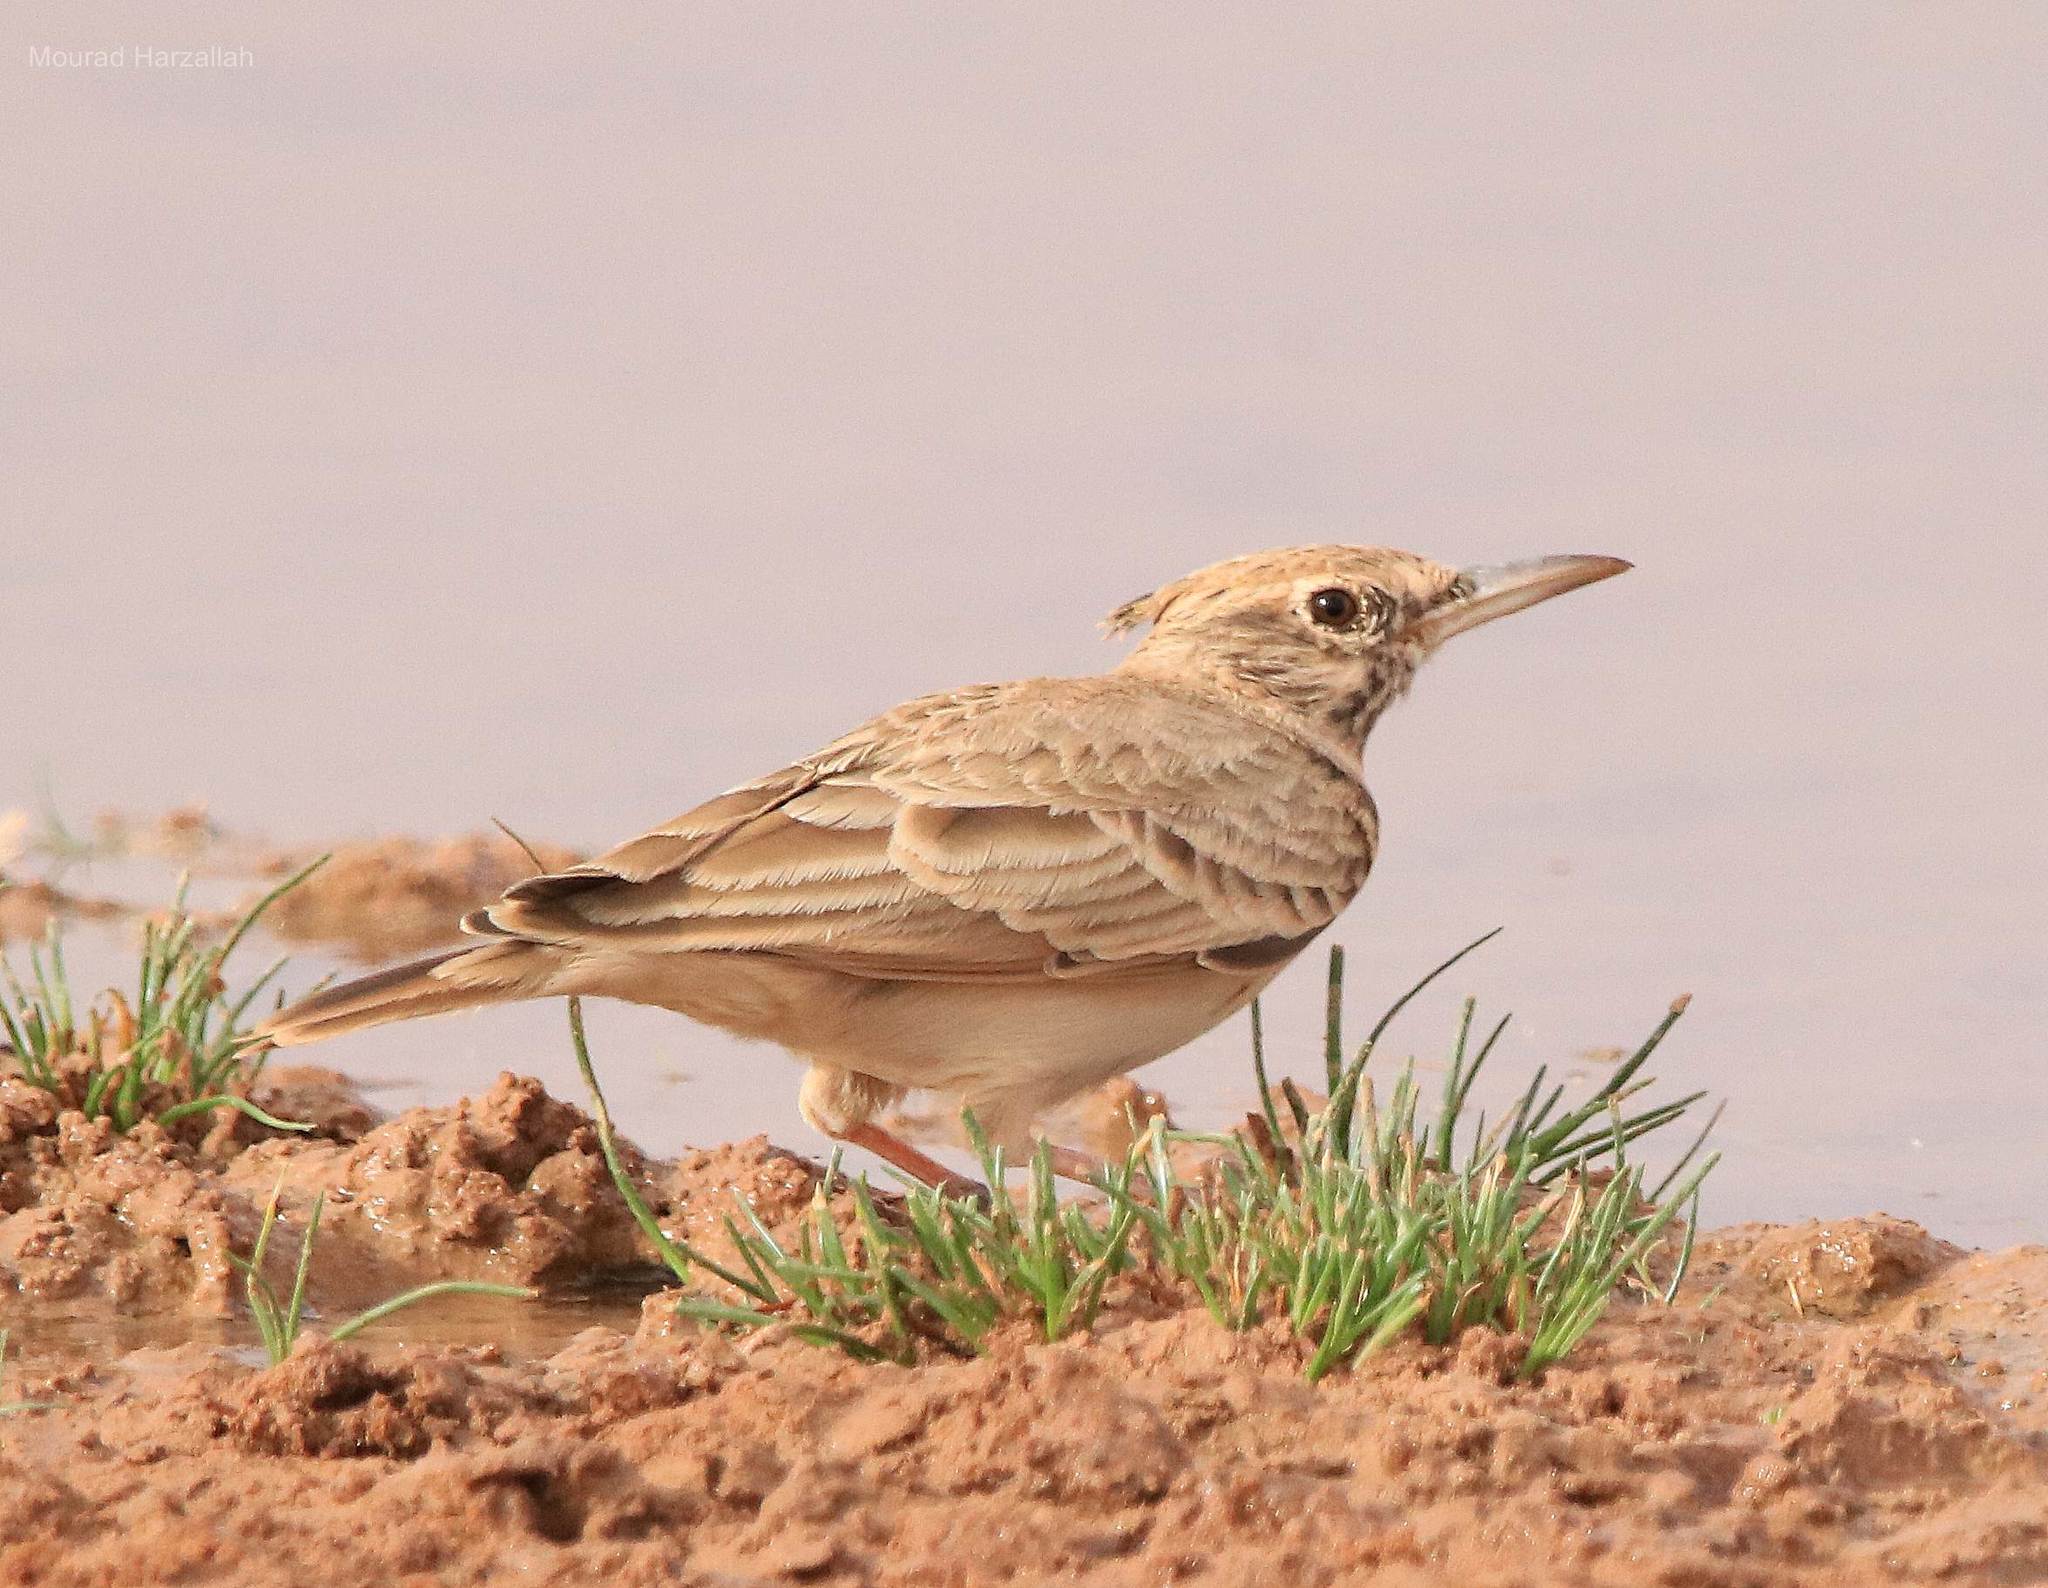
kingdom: Animalia
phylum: Chordata
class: Aves
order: Passeriformes
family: Alaudidae
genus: Galerida
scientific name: Galerida cristata
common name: Crested lark
